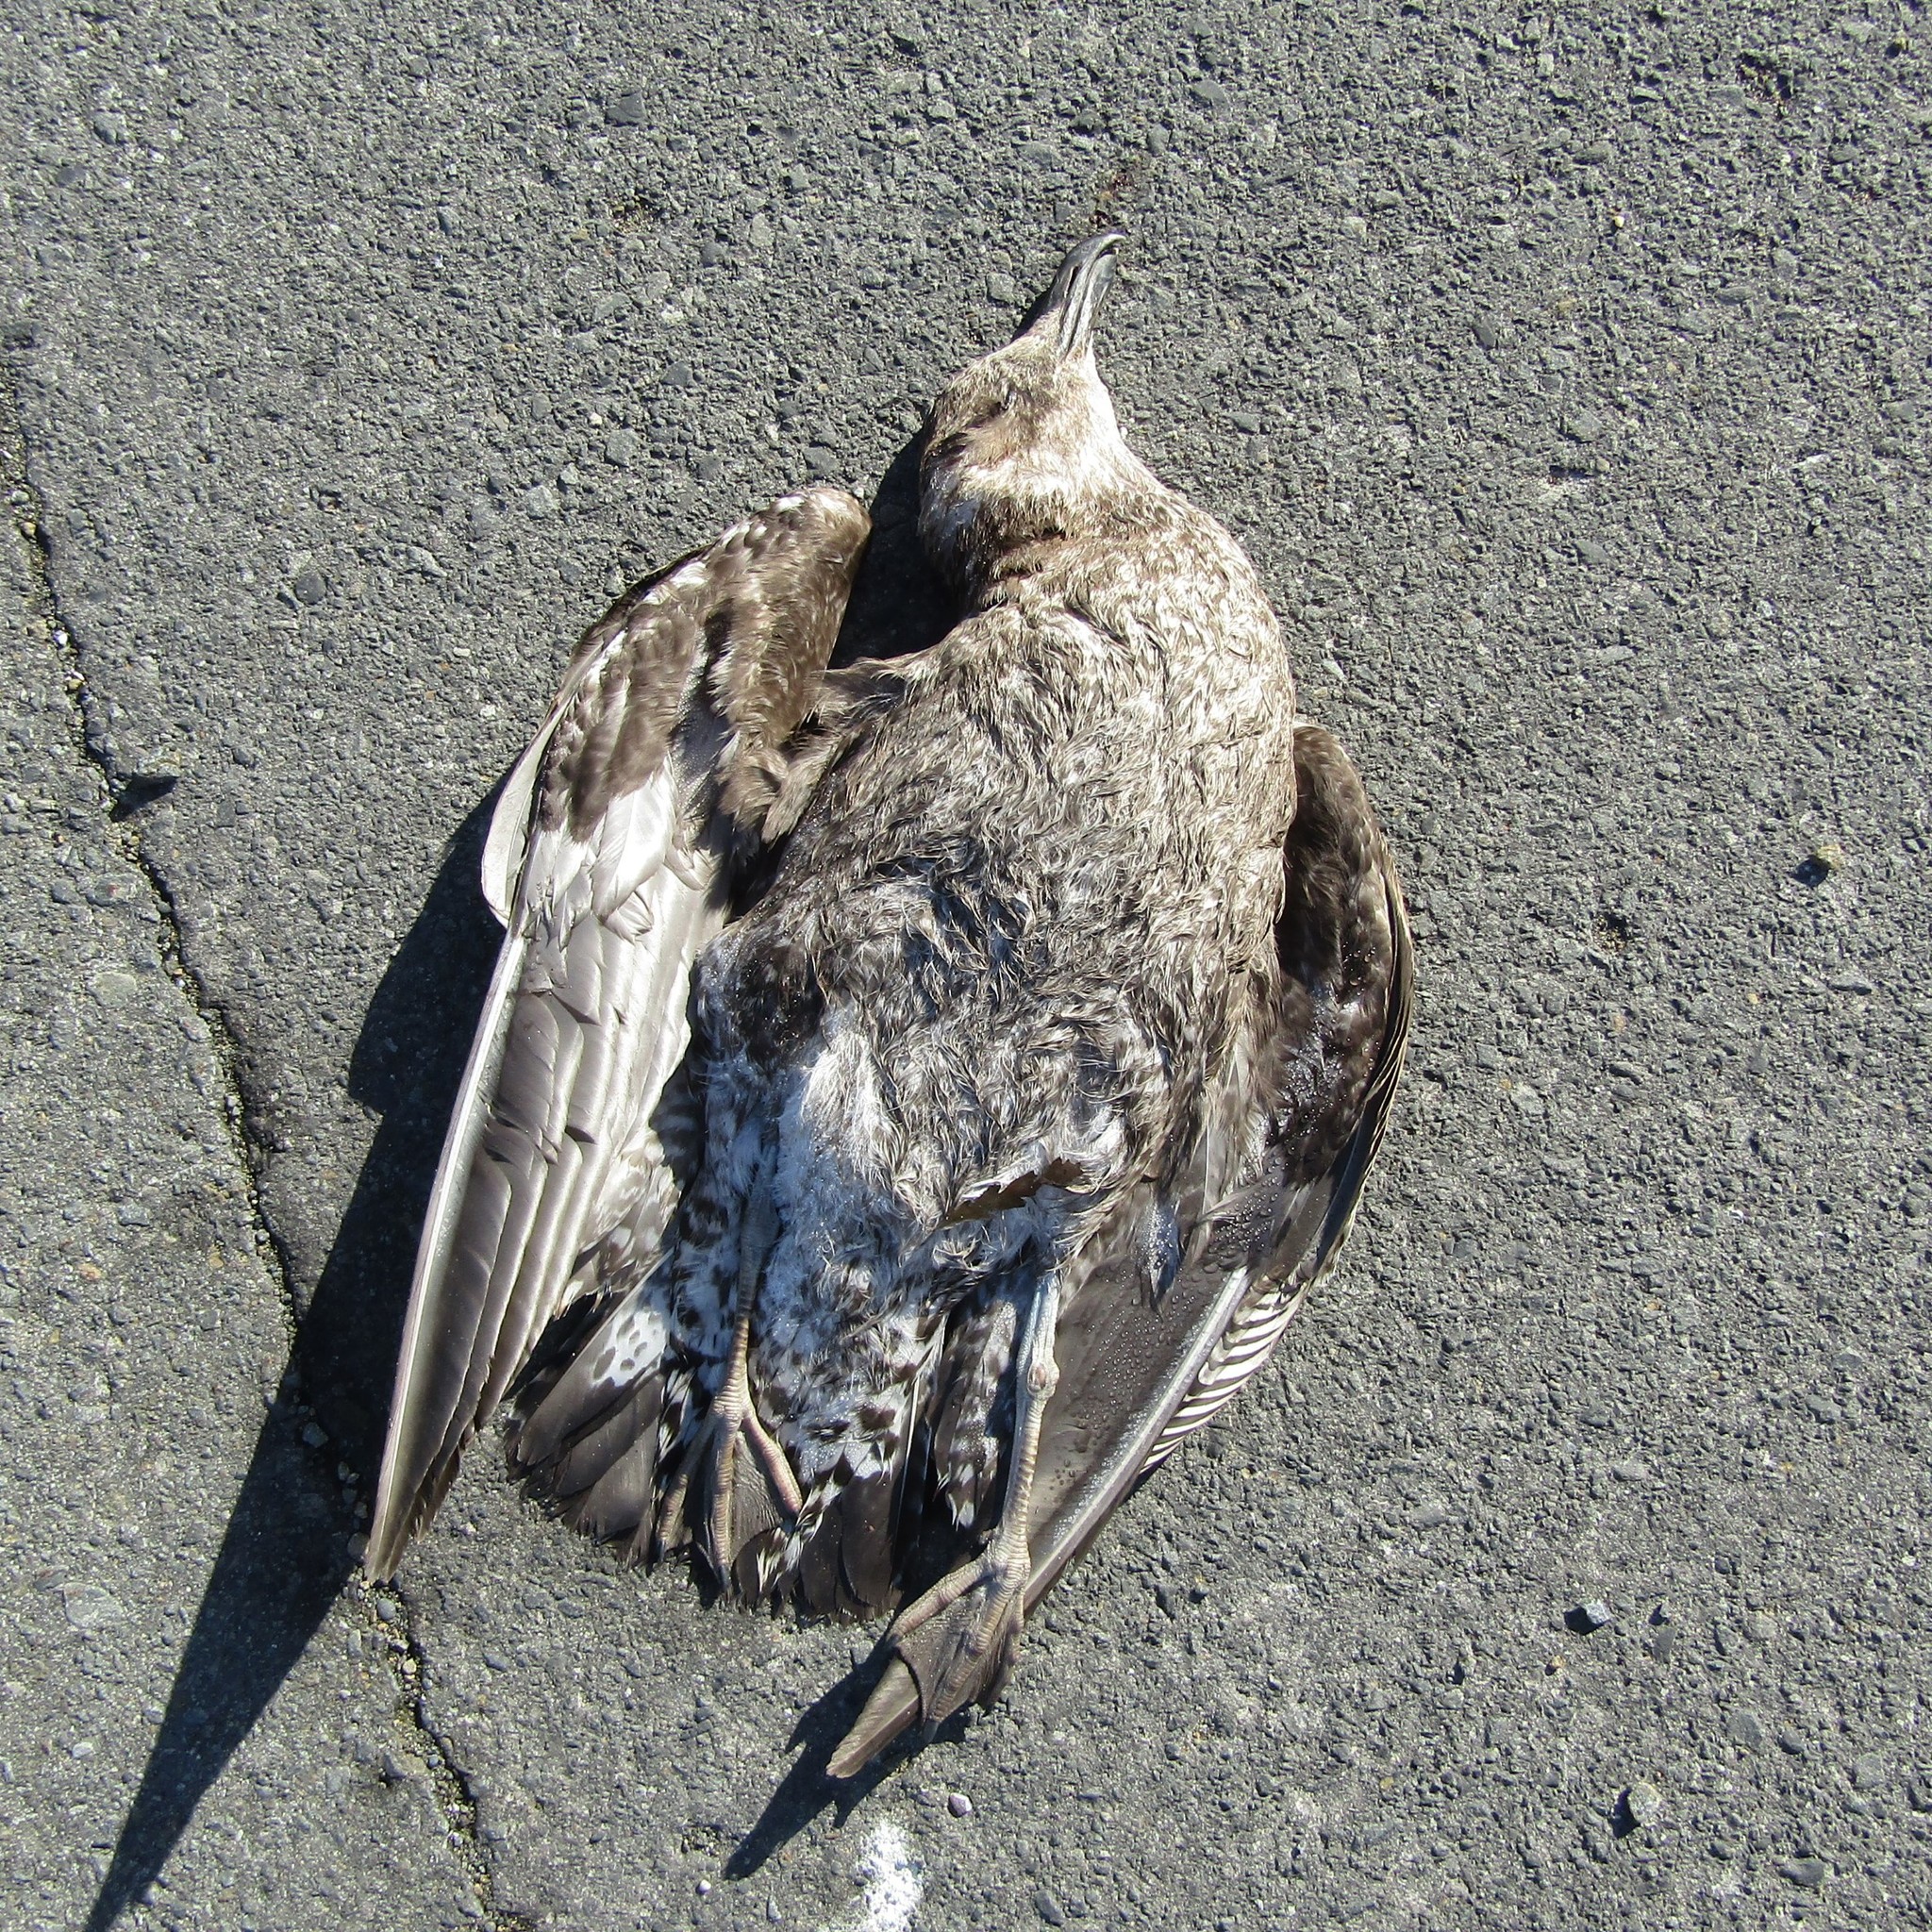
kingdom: Animalia
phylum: Chordata
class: Aves
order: Charadriiformes
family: Laridae
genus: Larus
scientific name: Larus dominicanus
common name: Kelp gull
